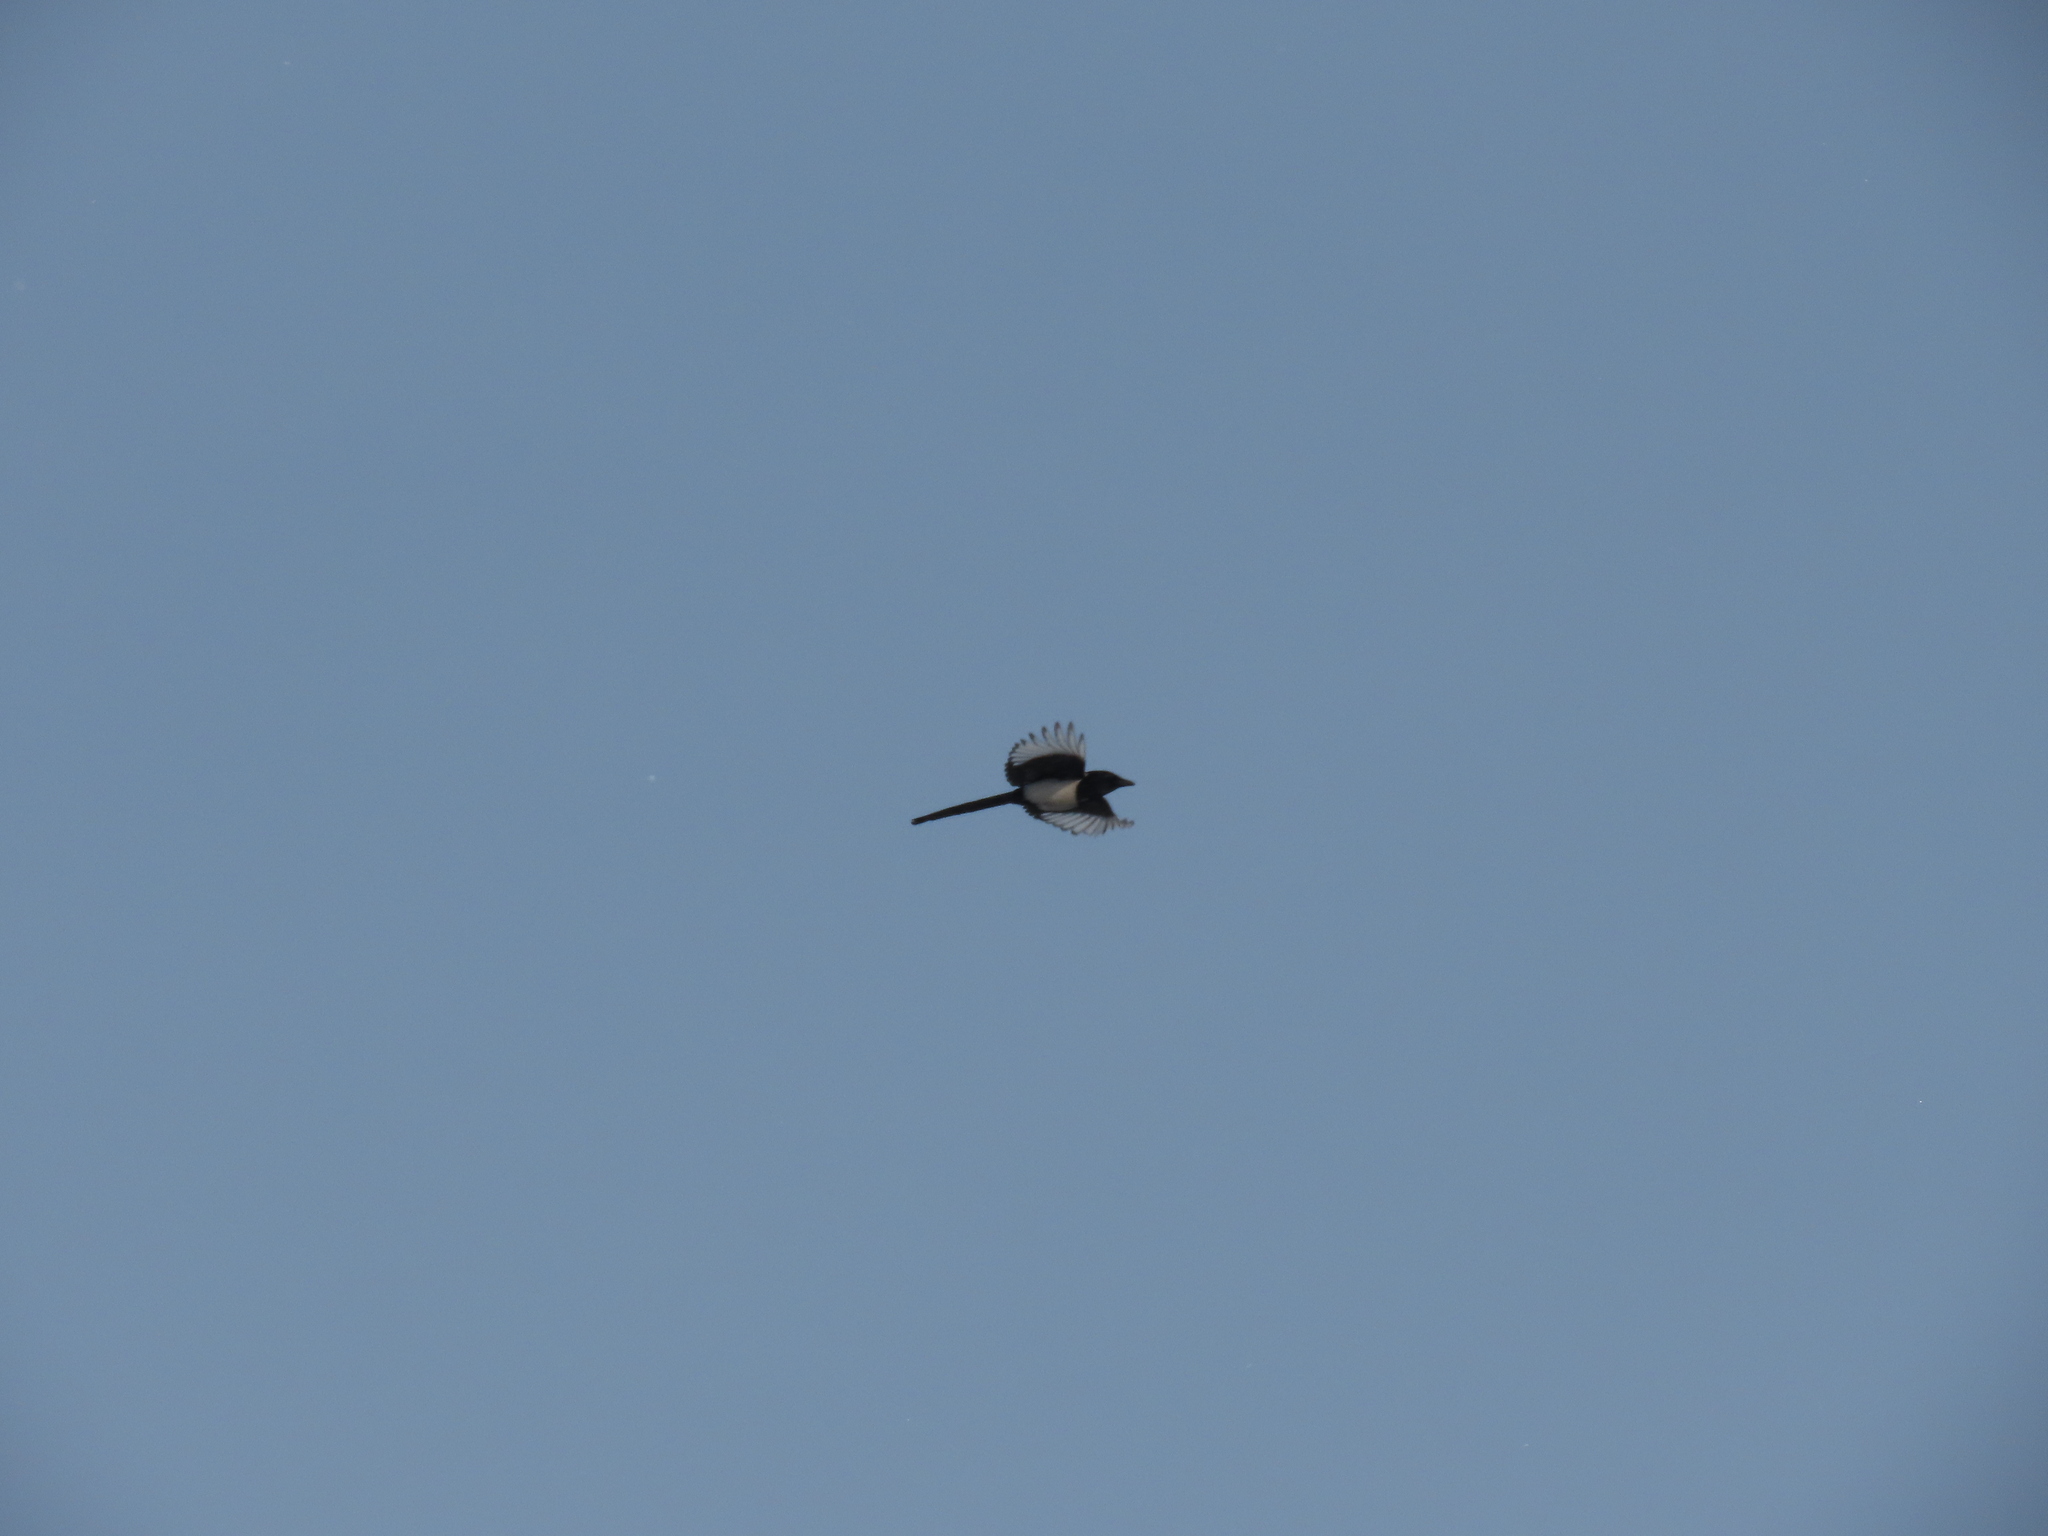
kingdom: Animalia
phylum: Chordata
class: Aves
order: Passeriformes
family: Corvidae
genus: Pica
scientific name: Pica pica
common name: Eurasian magpie
